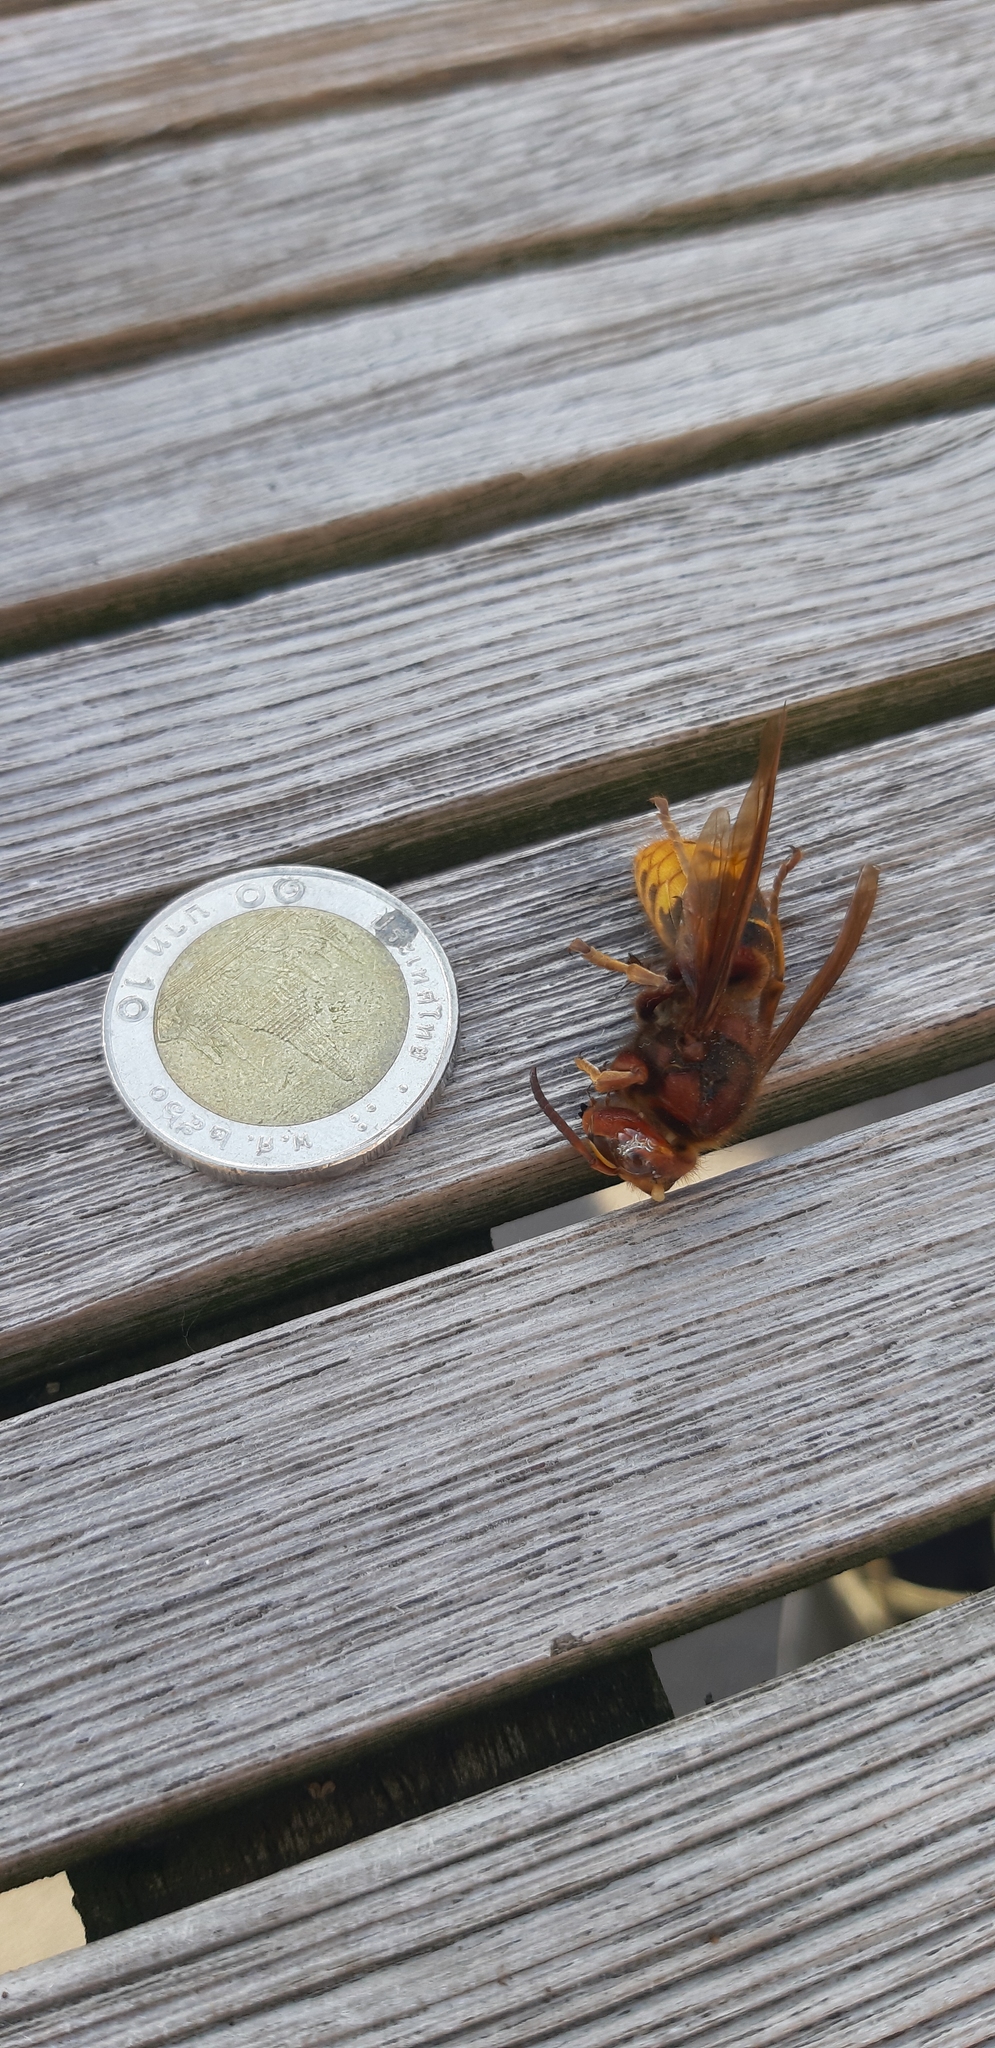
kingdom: Animalia
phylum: Arthropoda
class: Insecta
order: Hymenoptera
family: Vespidae
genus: Vespa
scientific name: Vespa crabro
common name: Hornet
